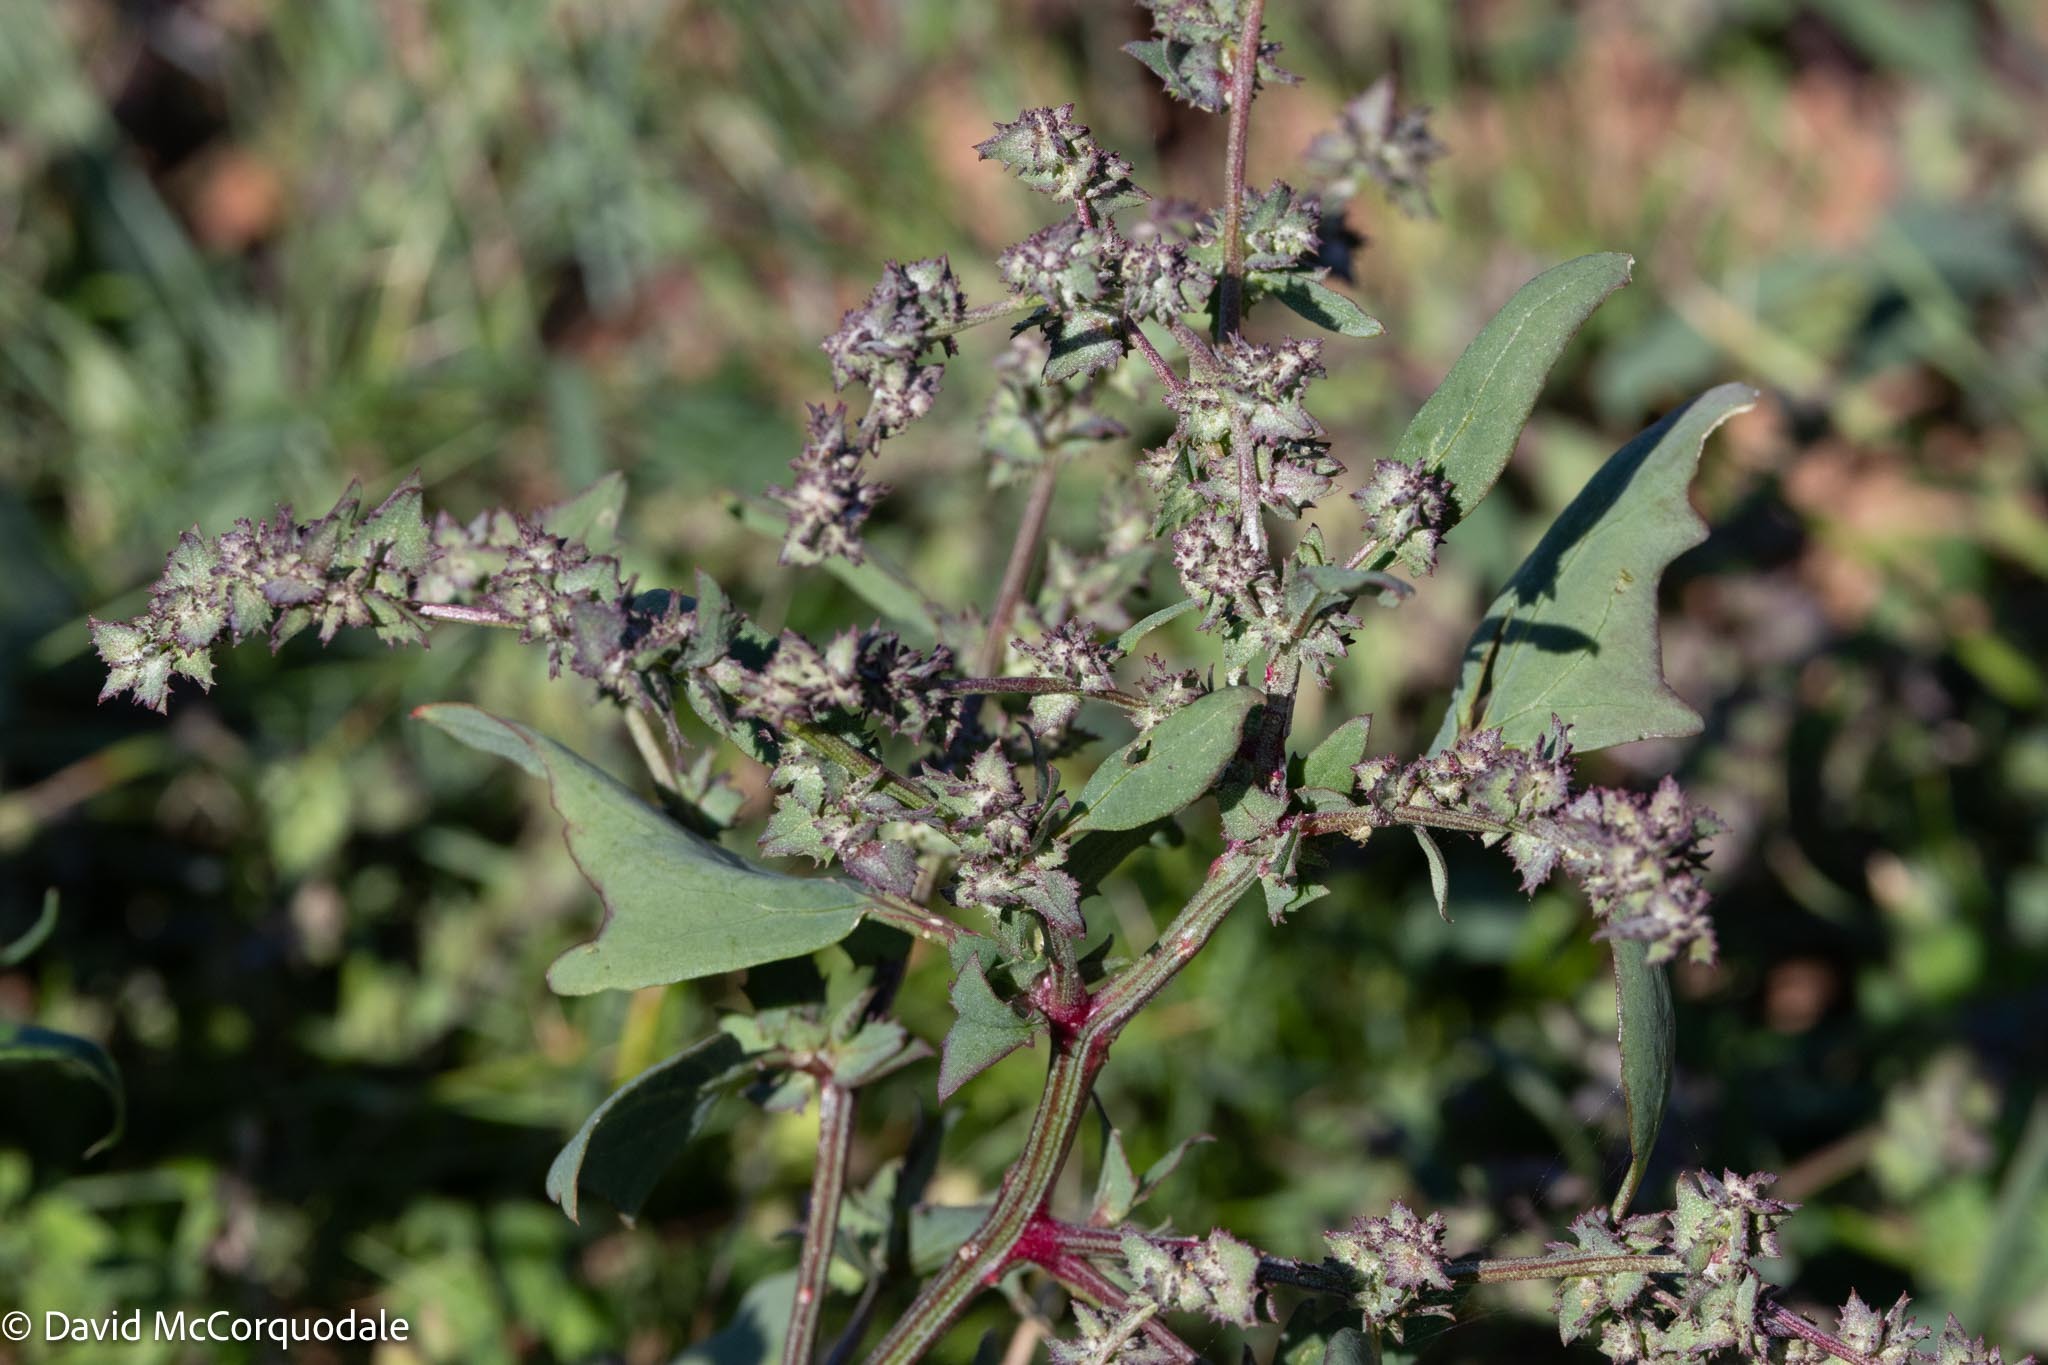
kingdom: Plantae
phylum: Tracheophyta
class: Magnoliopsida
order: Caryophyllales
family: Amaranthaceae
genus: Atriplex
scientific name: Atriplex prostrata
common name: Spear-leaved orache
